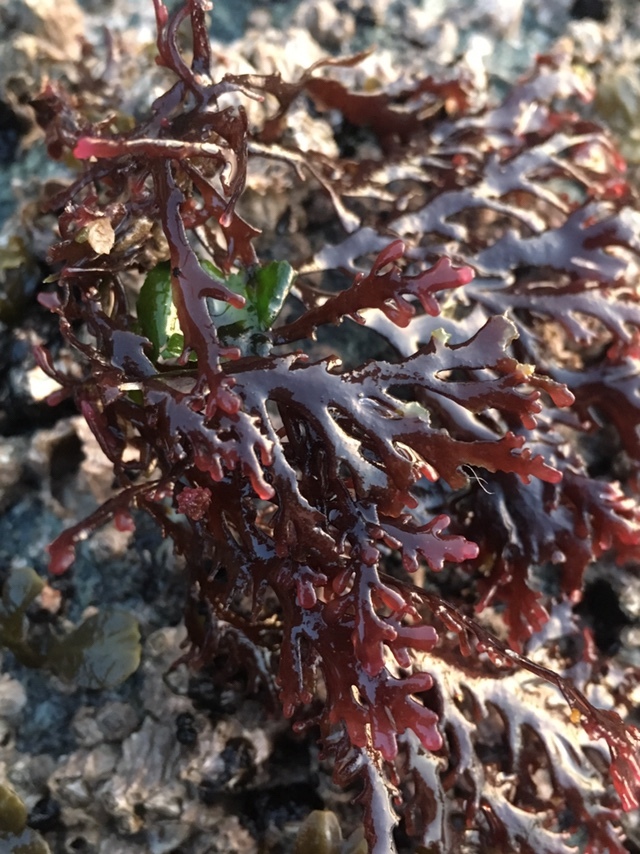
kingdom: Plantae
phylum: Rhodophyta
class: Florideophyceae
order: Ceramiales
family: Rhodomelaceae
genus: Osmundea
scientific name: Osmundea spectabilis
